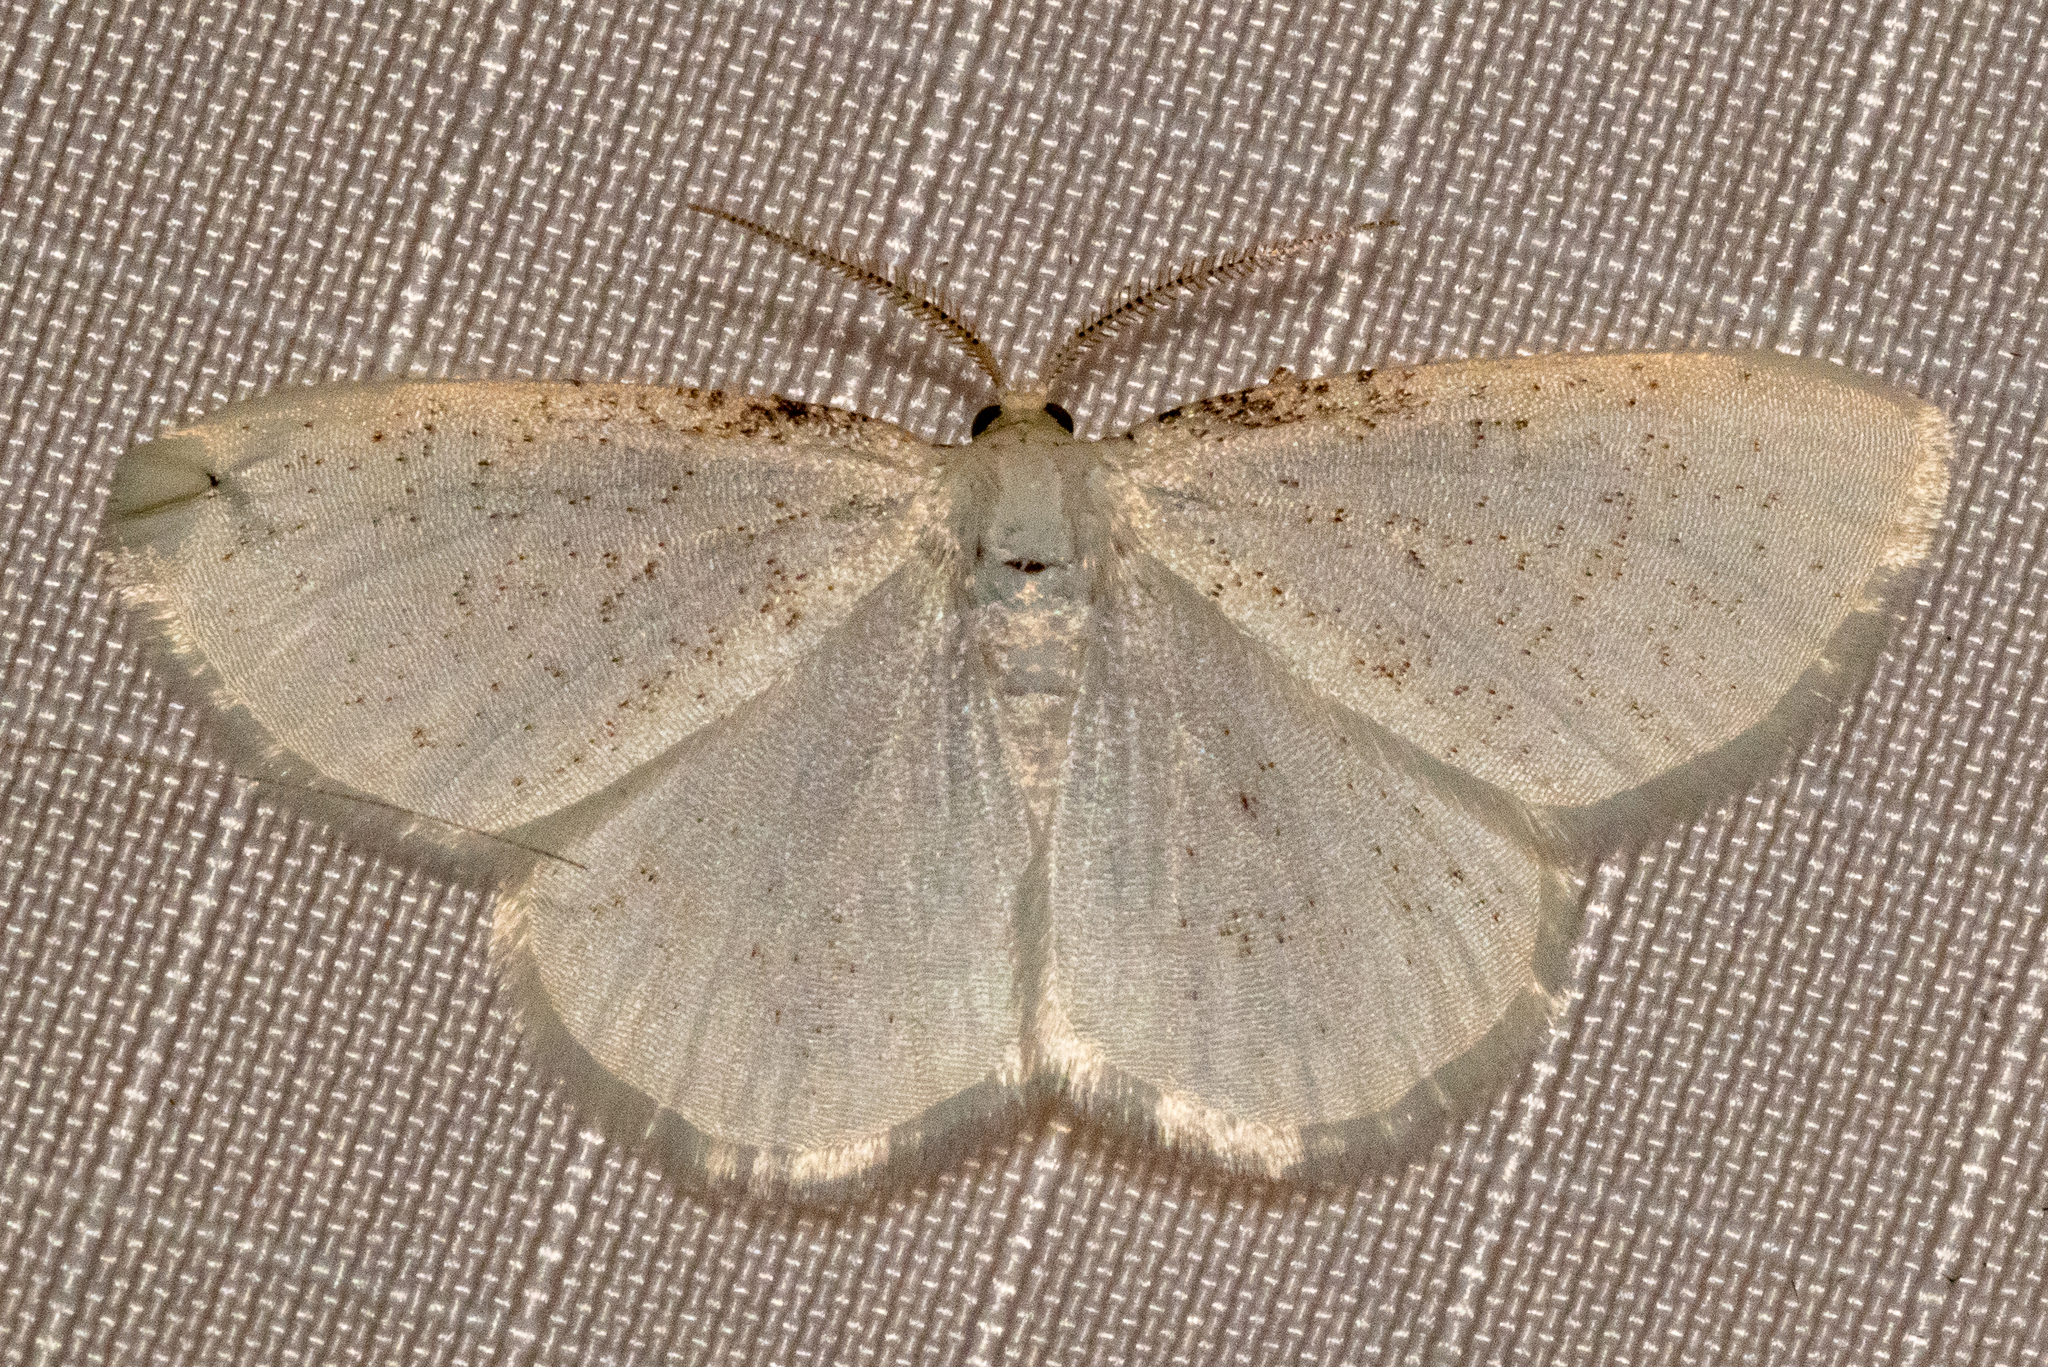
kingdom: Animalia
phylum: Arthropoda
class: Insecta
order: Lepidoptera
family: Geometridae
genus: Cabera
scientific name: Cabera variolaria
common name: Pink-striped willow spanworm
